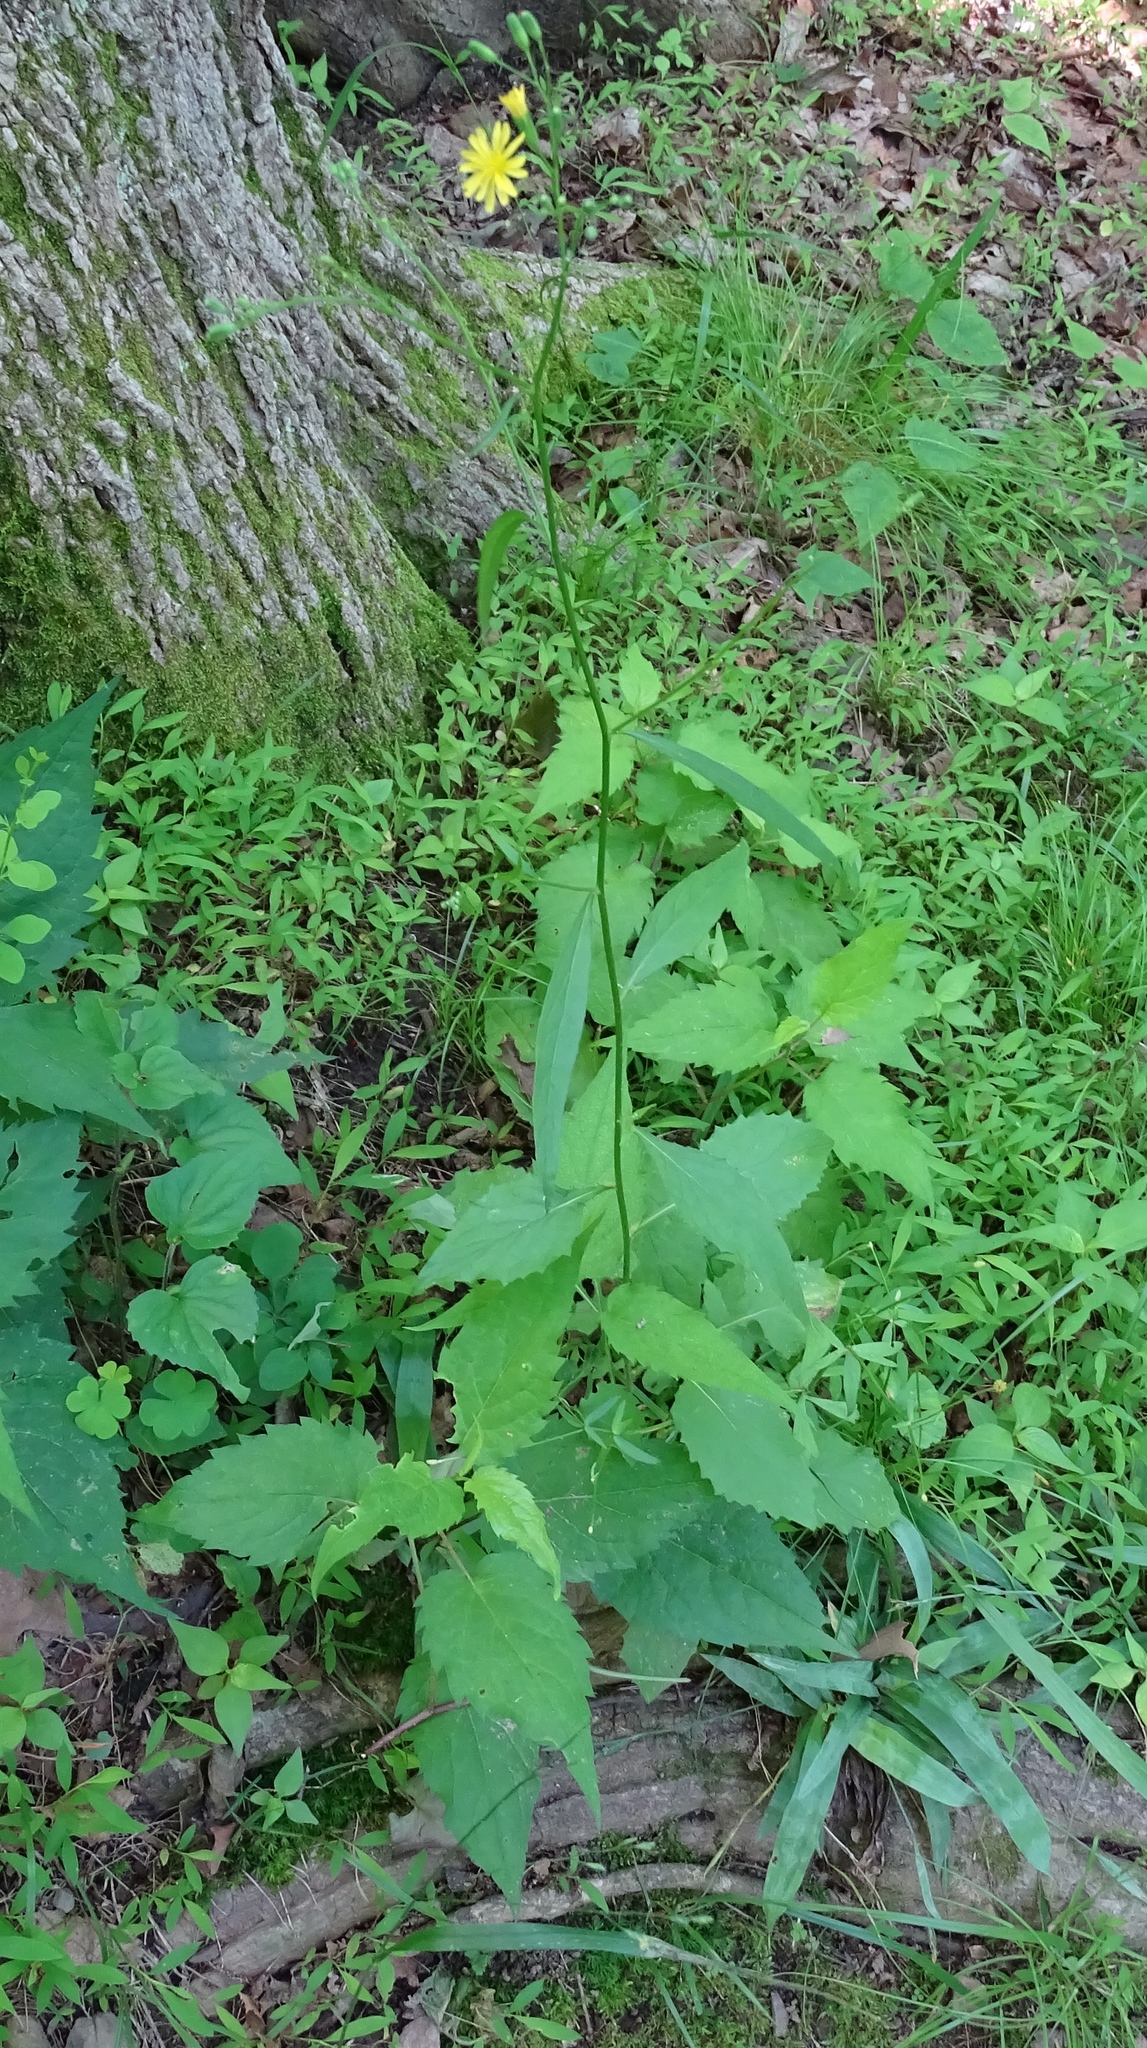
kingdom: Plantae
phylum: Tracheophyta
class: Magnoliopsida
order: Asterales
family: Asteraceae
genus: Lapsana
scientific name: Lapsana communis
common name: Nipplewort
